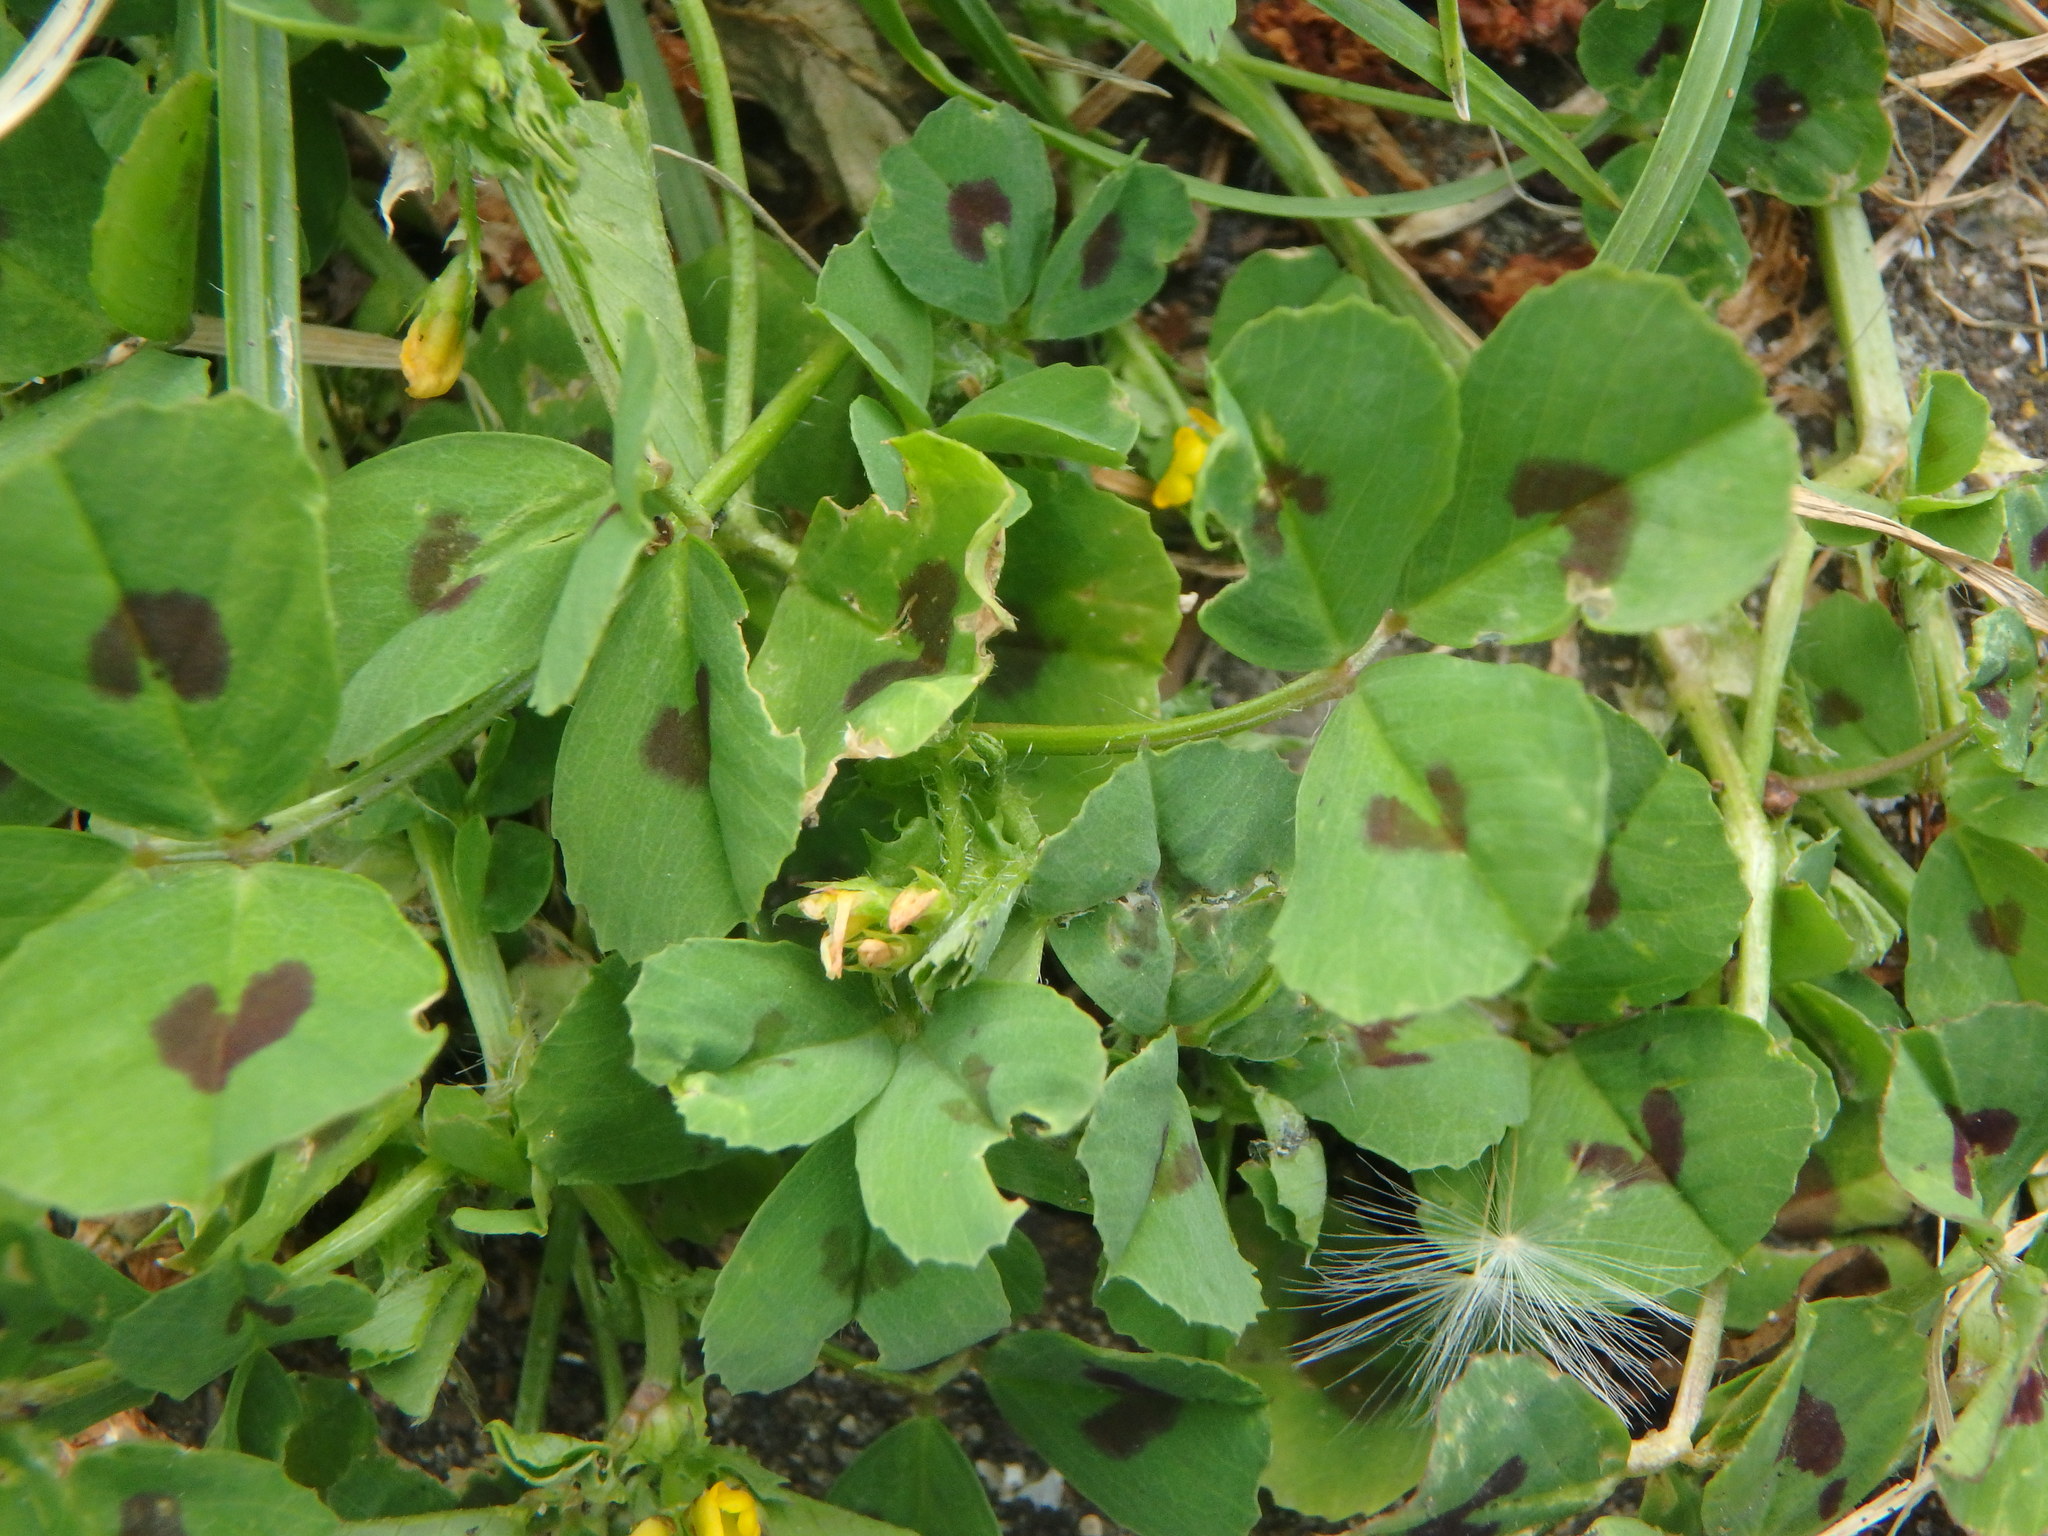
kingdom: Plantae
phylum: Tracheophyta
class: Magnoliopsida
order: Fabales
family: Fabaceae
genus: Medicago
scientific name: Medicago arabica
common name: Spotted medick
